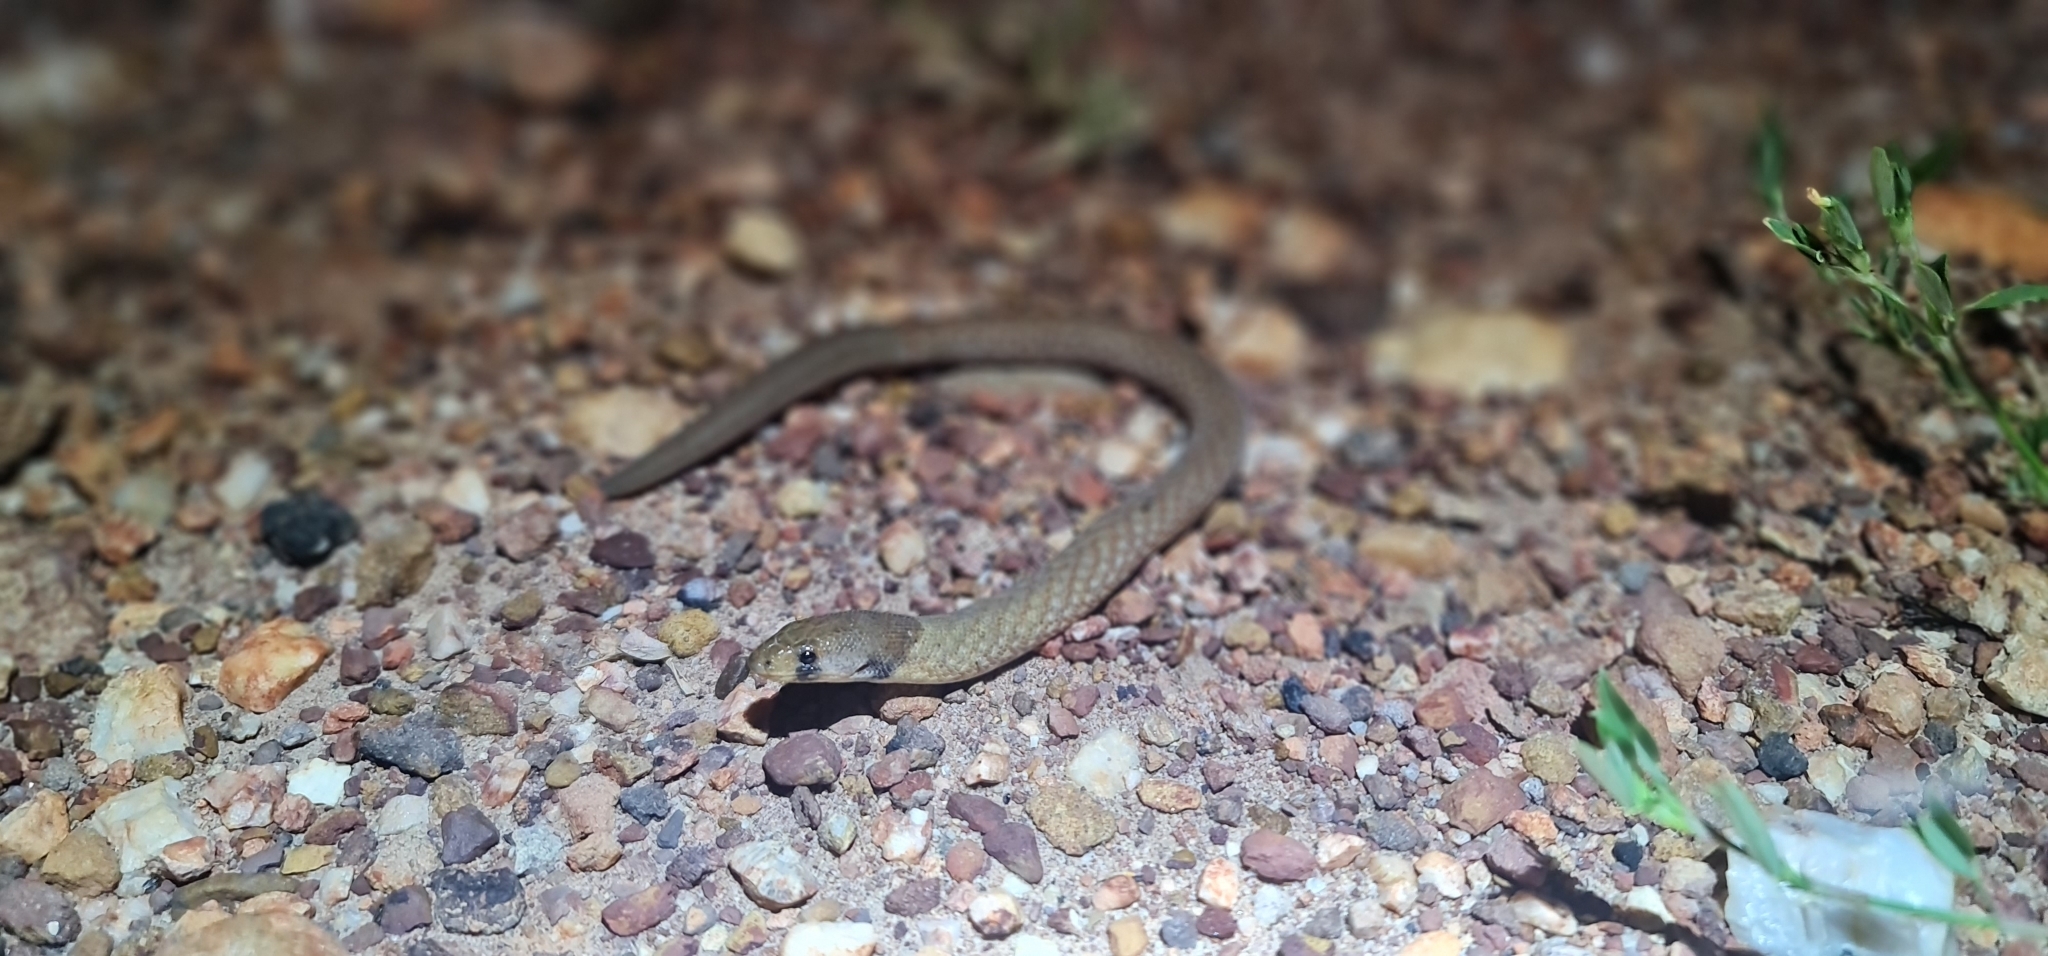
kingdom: Animalia
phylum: Chordata
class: Squamata
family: Pygopodidae
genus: Pygopus
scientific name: Pygopus steelescotti
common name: Northern hooded scaly-foot
